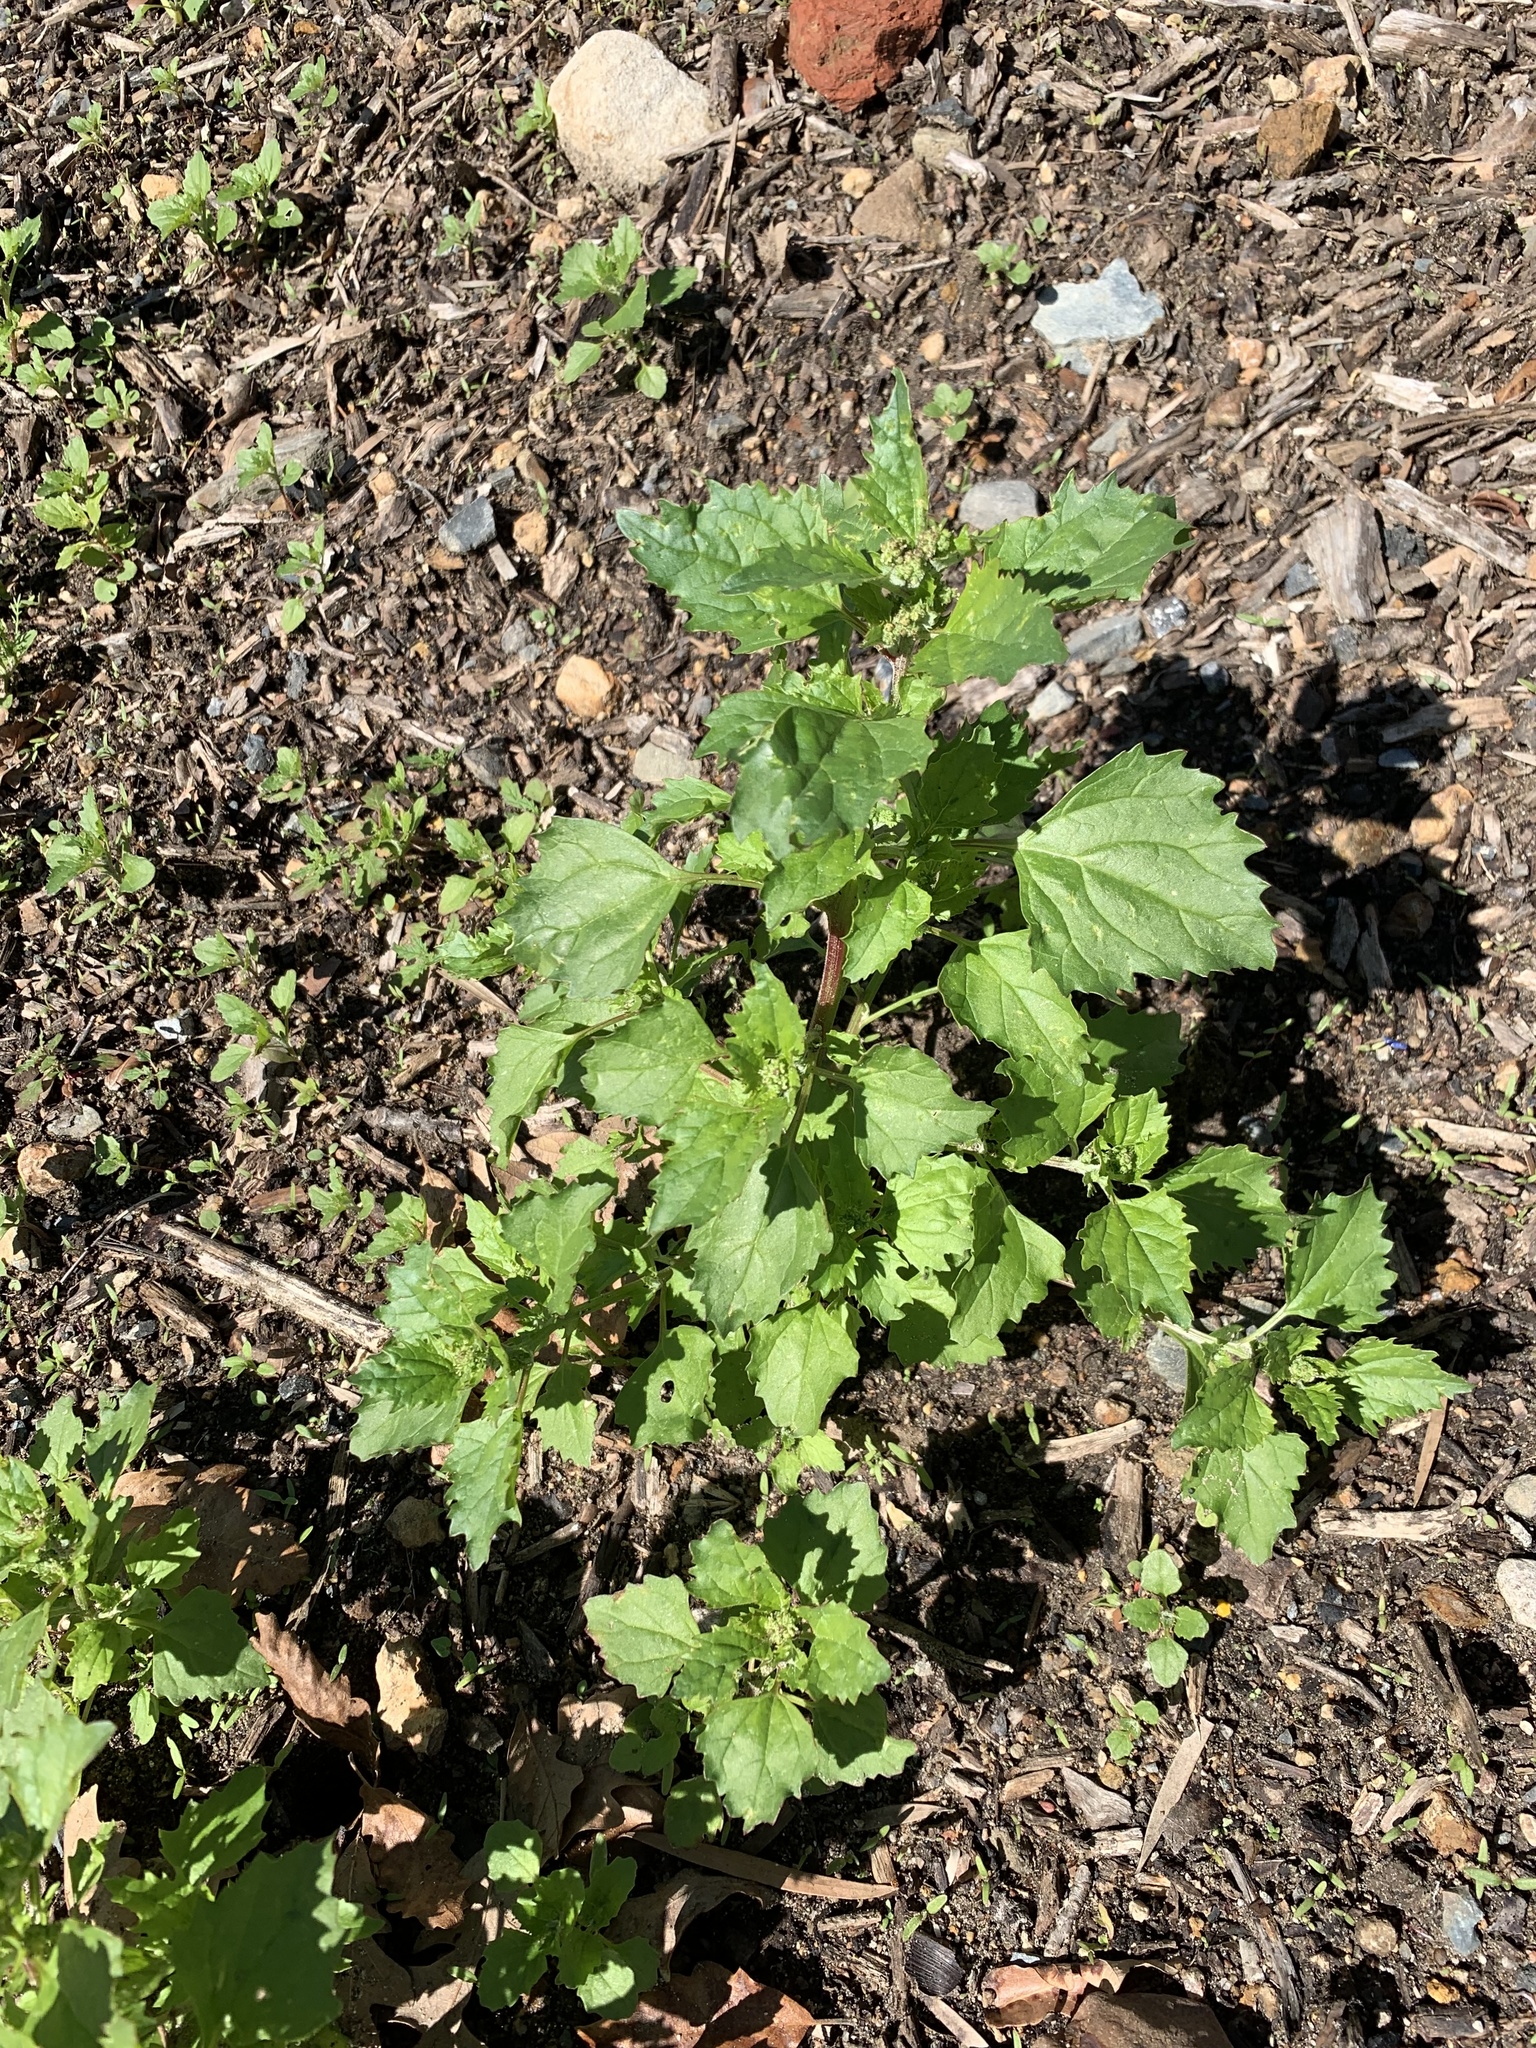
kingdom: Plantae
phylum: Tracheophyta
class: Magnoliopsida
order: Caryophyllales
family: Amaranthaceae
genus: Chenopodiastrum
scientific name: Chenopodiastrum murale
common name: Sowbane
